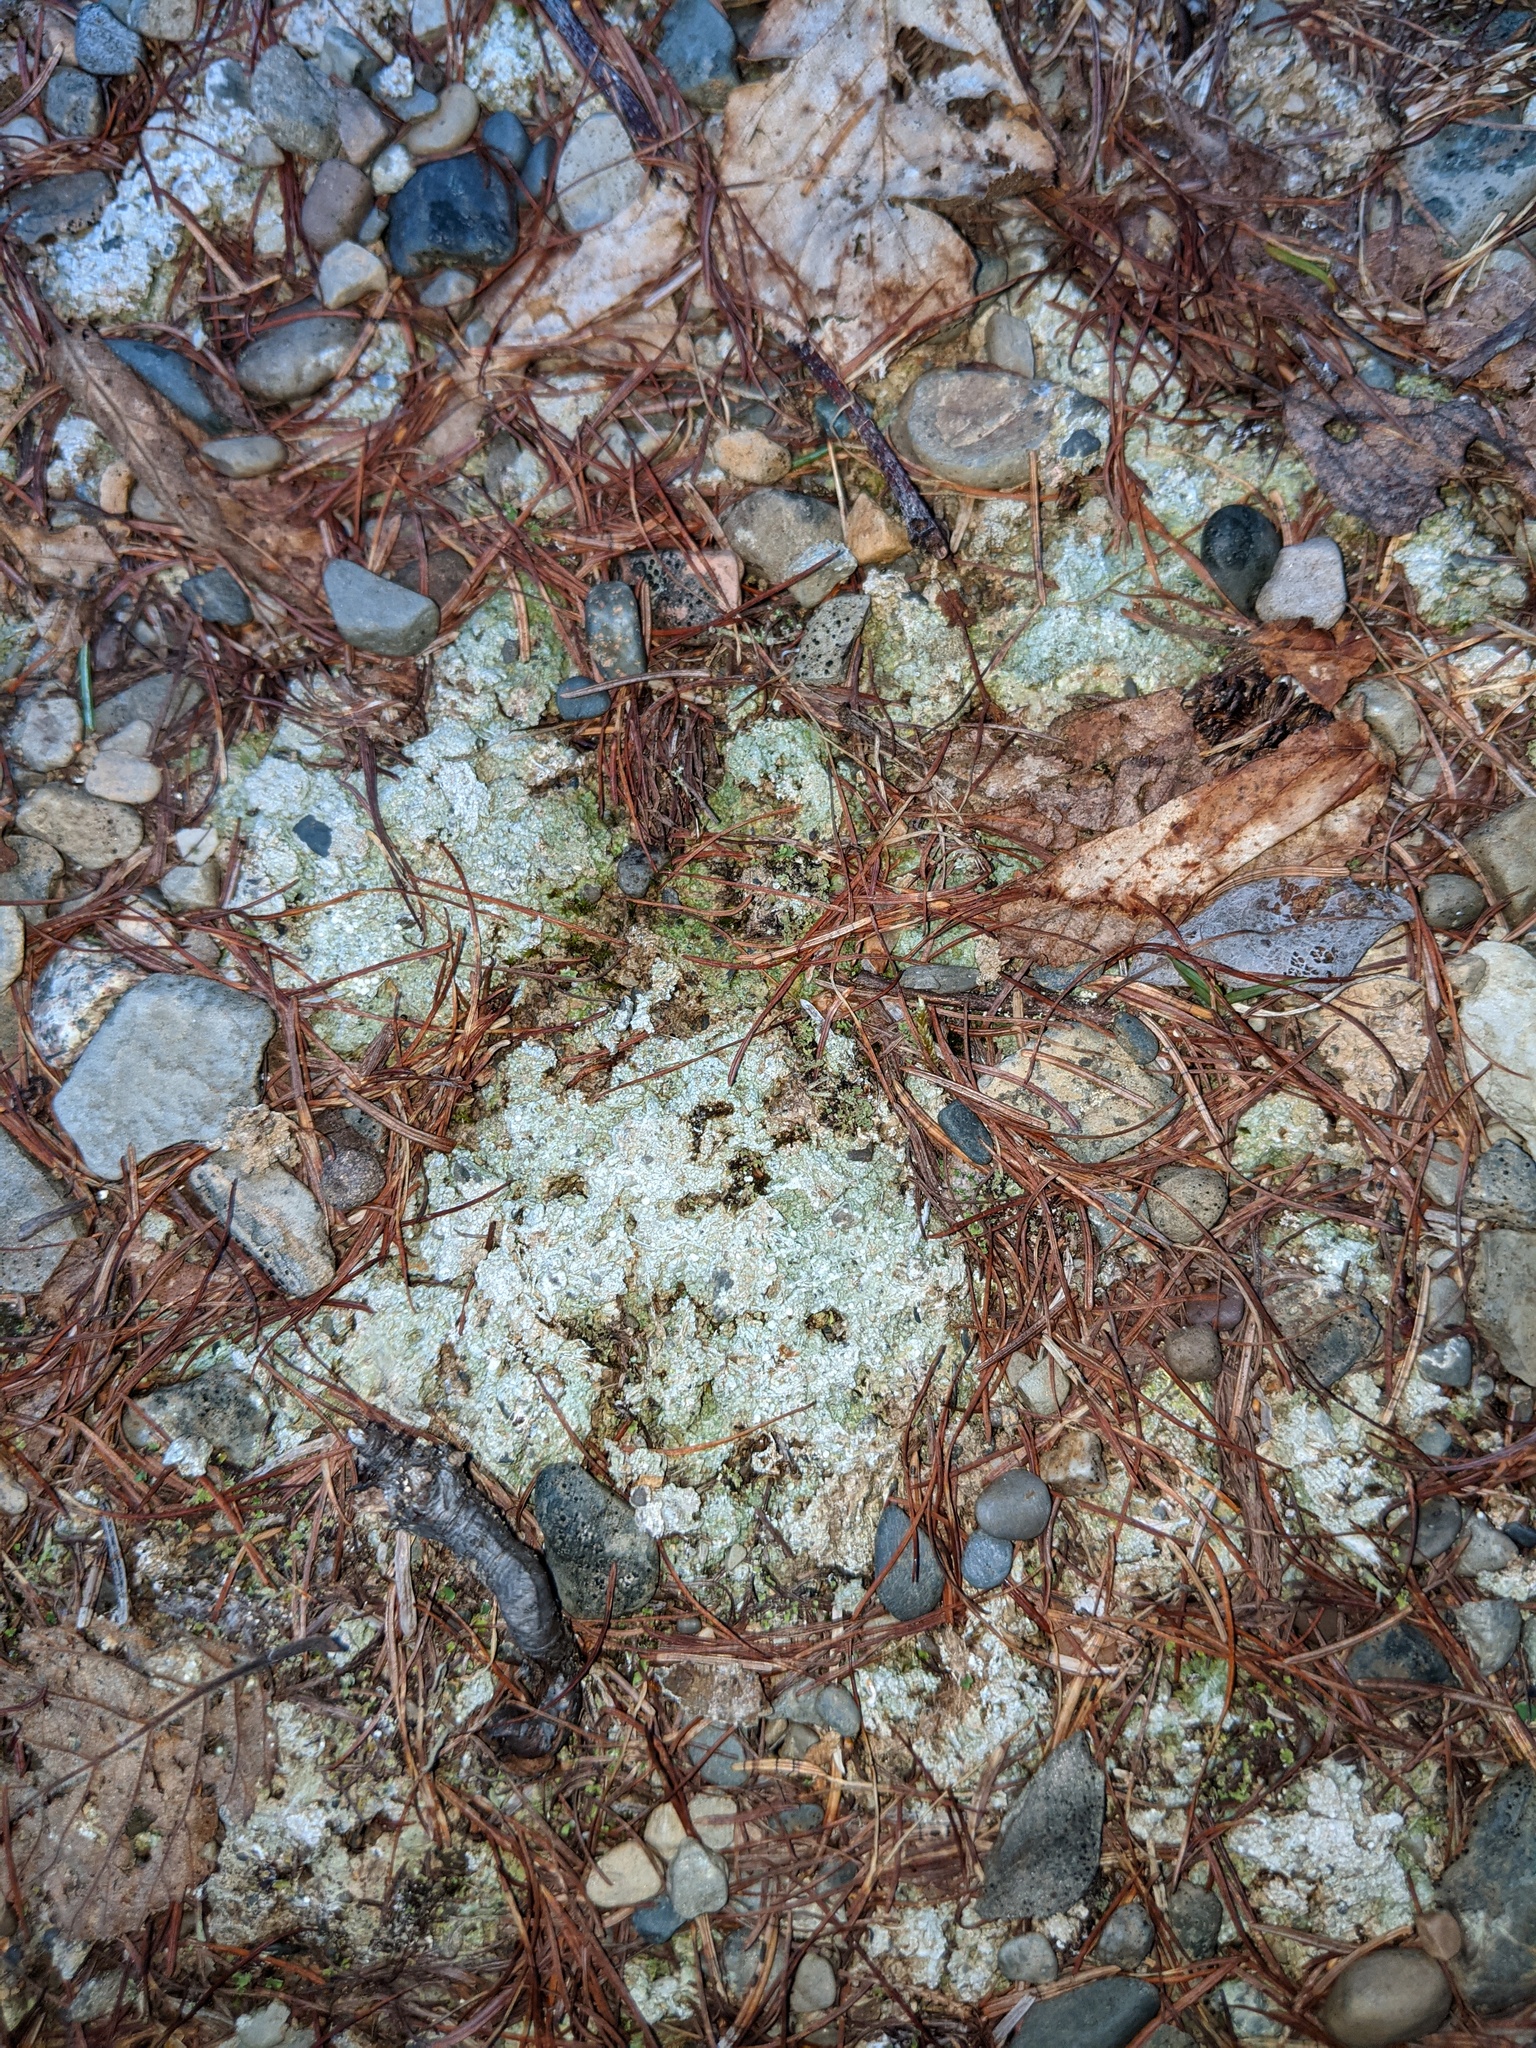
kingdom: Fungi
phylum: Ascomycota
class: Lecanoromycetes
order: Pertusariales
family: Icmadophilaceae
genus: Dibaeis
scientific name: Dibaeis baeomyces
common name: Pink earth lichen
